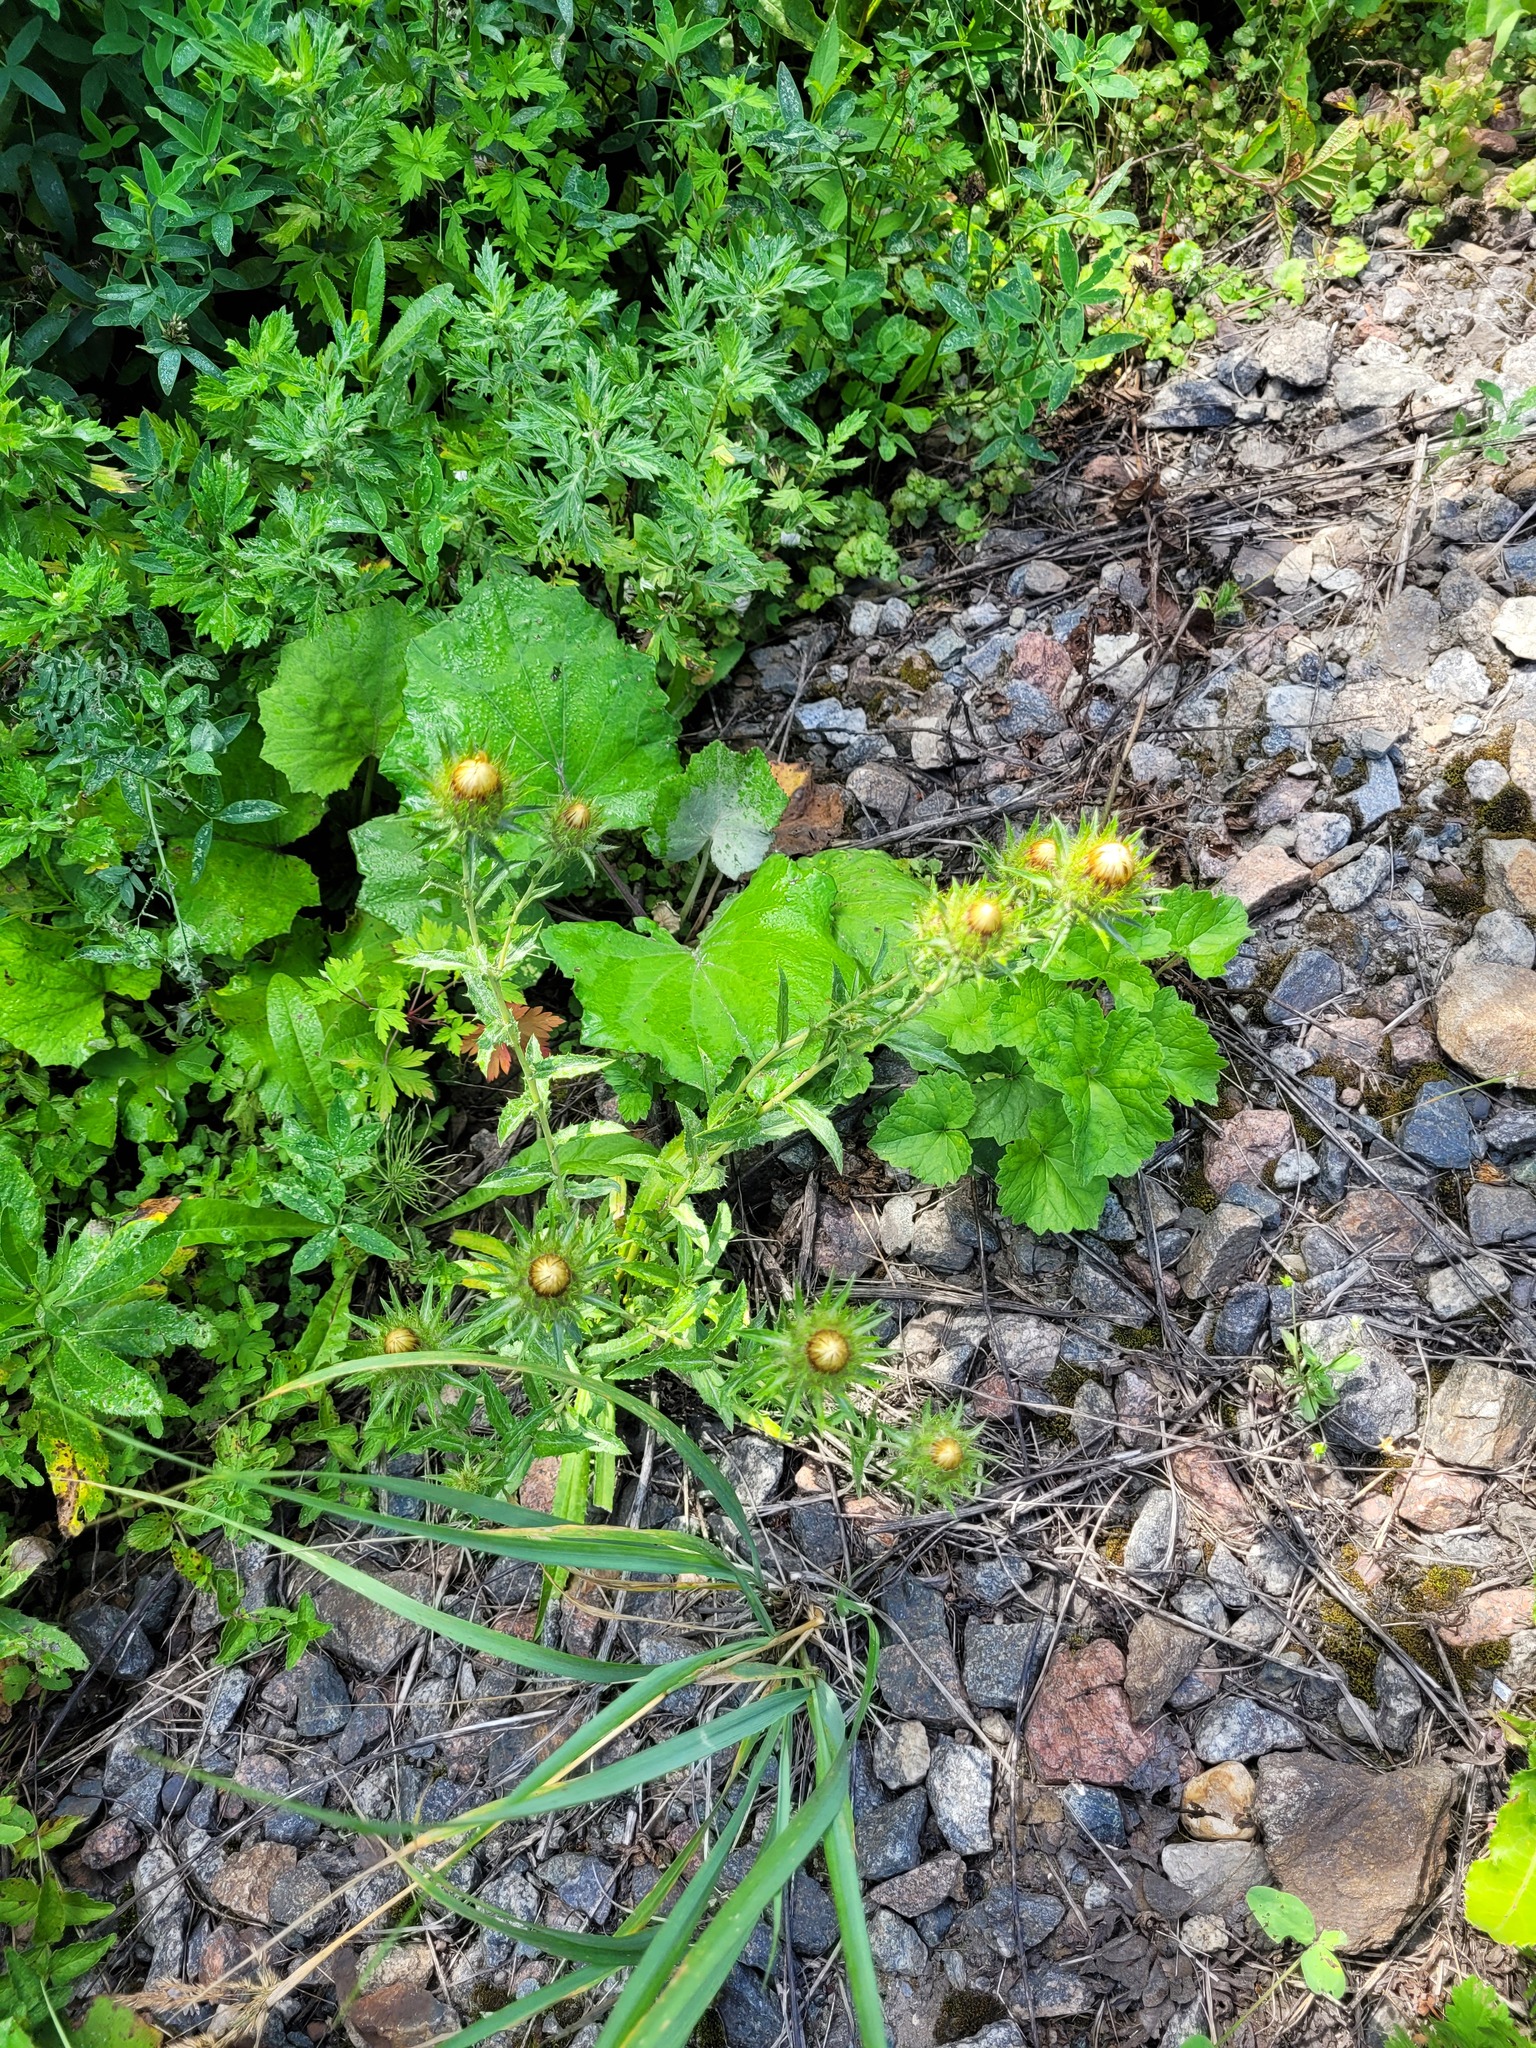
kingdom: Plantae
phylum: Tracheophyta
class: Magnoliopsida
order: Asterales
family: Asteraceae
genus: Carlina
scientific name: Carlina biebersteinii
